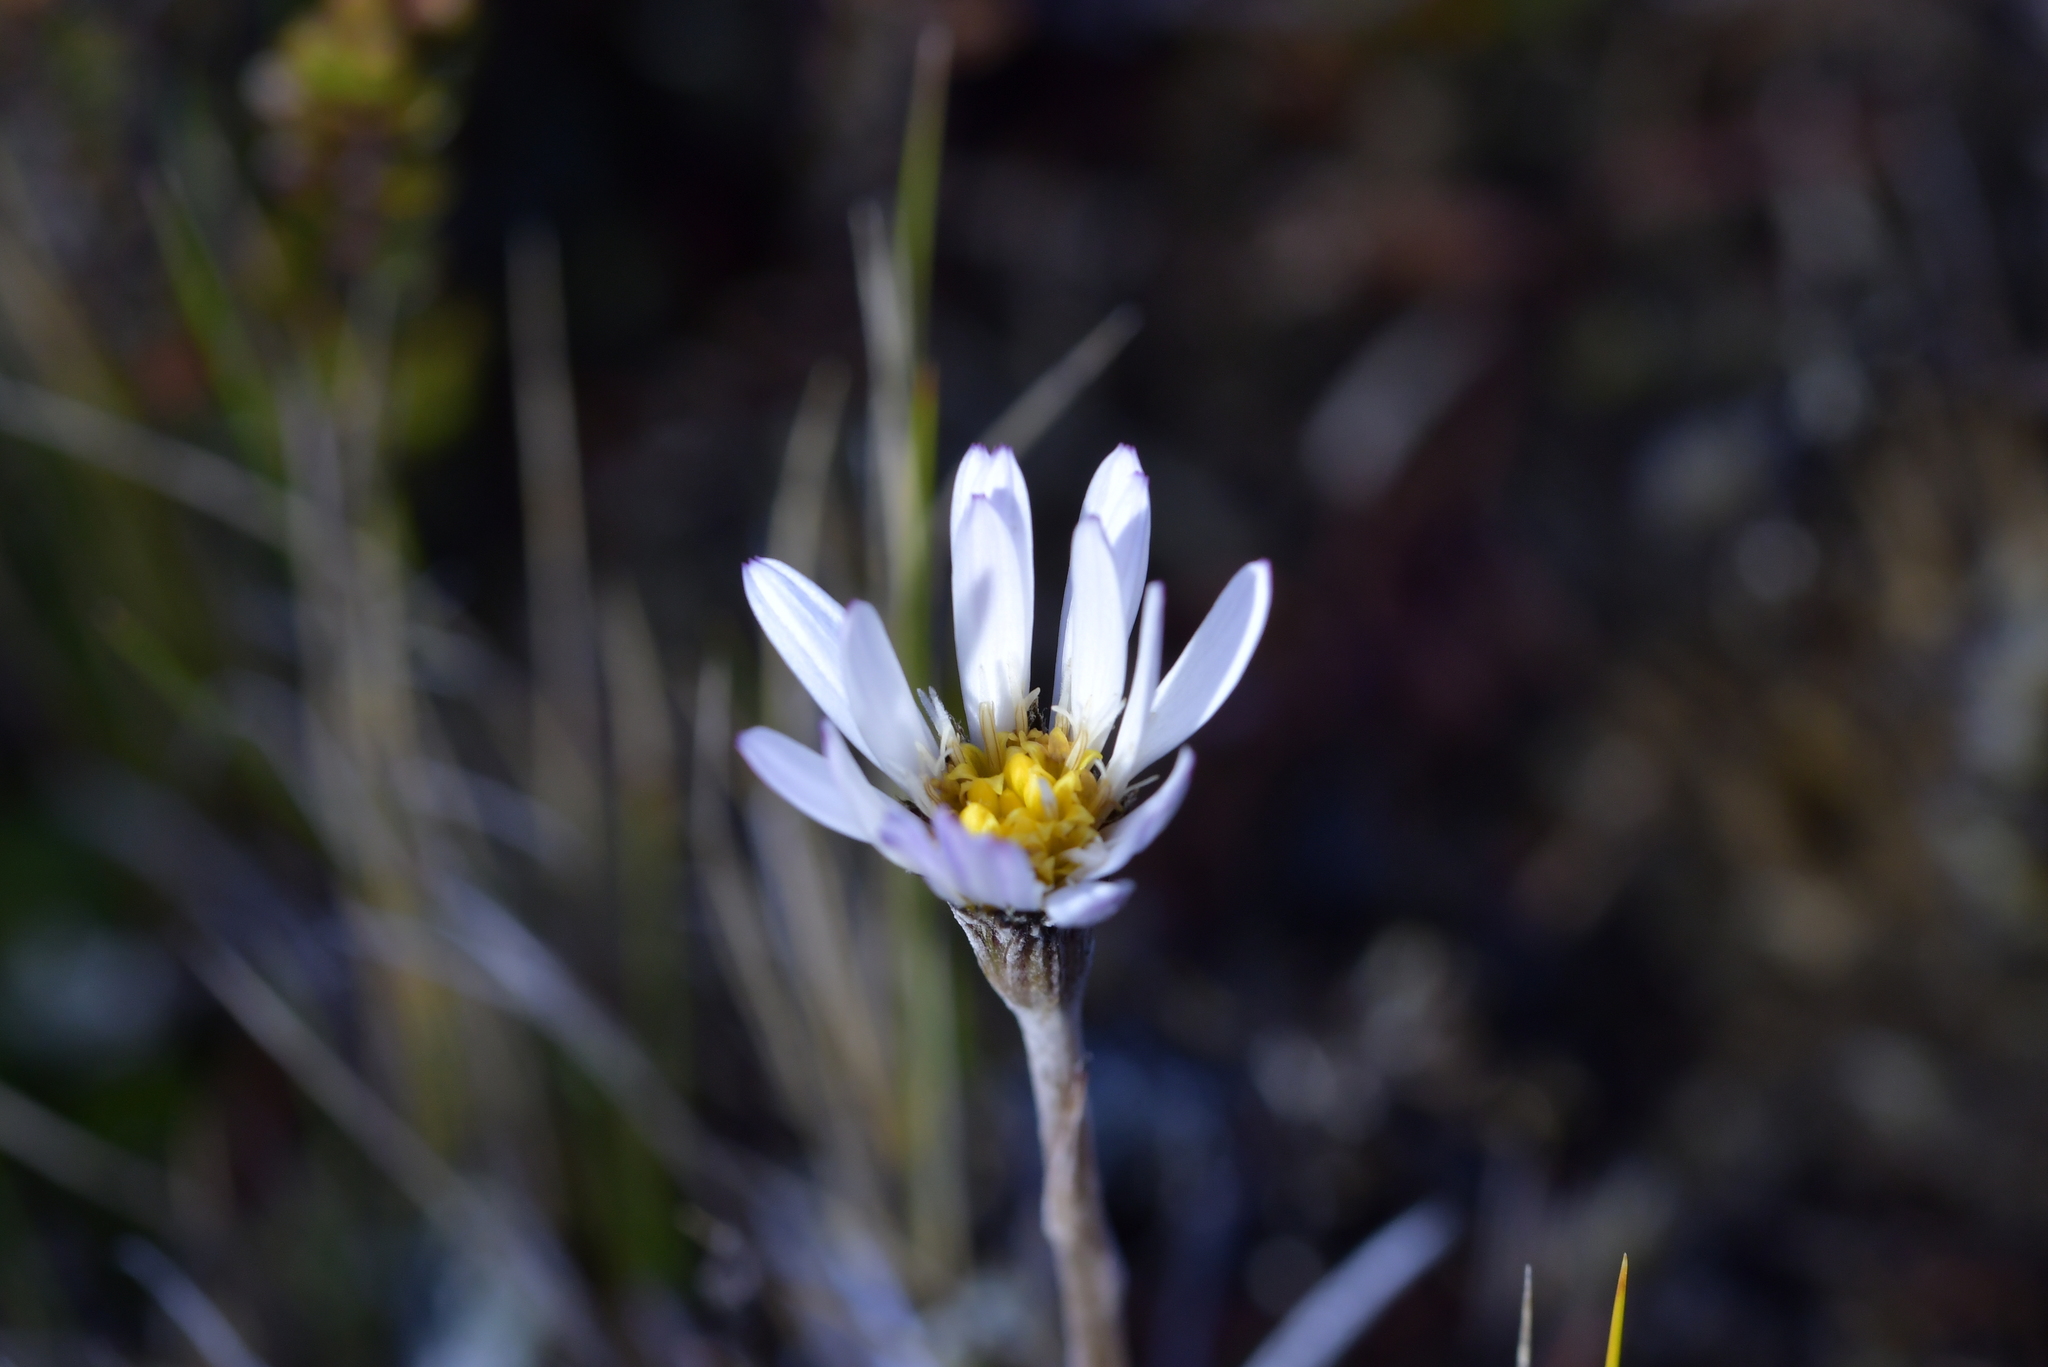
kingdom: Plantae
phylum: Tracheophyta
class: Magnoliopsida
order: Asterales
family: Asteraceae
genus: Celmisia
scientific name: Celmisia gracilenta
